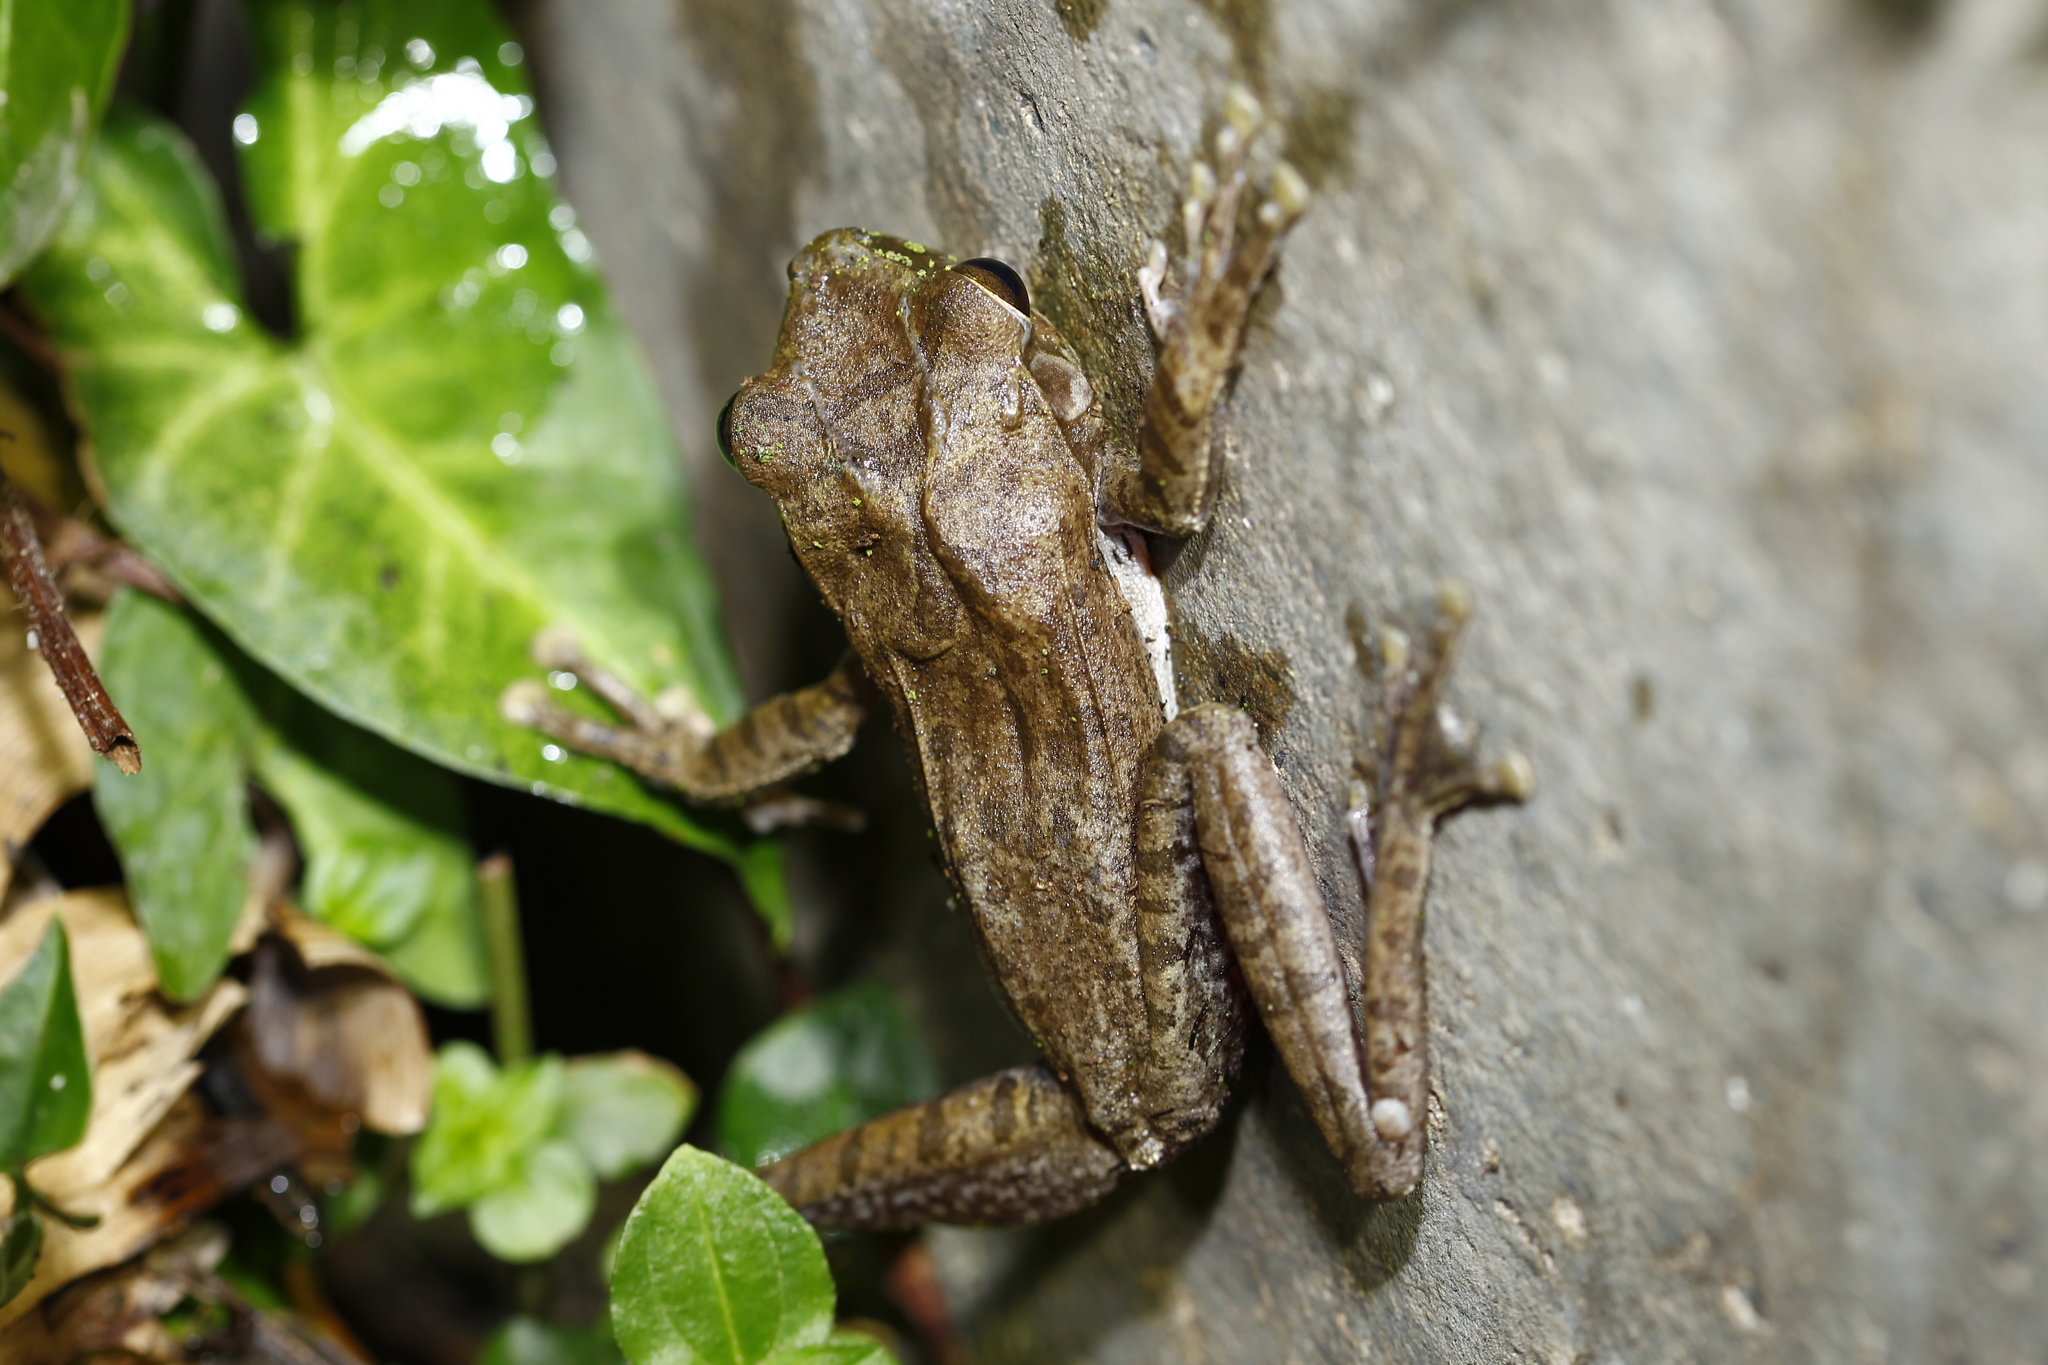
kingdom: Animalia
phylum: Chordata
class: Amphibia
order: Anura
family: Rhacophoridae
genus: Polypedates
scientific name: Polypedates megacephalus
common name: Hong kong whipping frog
